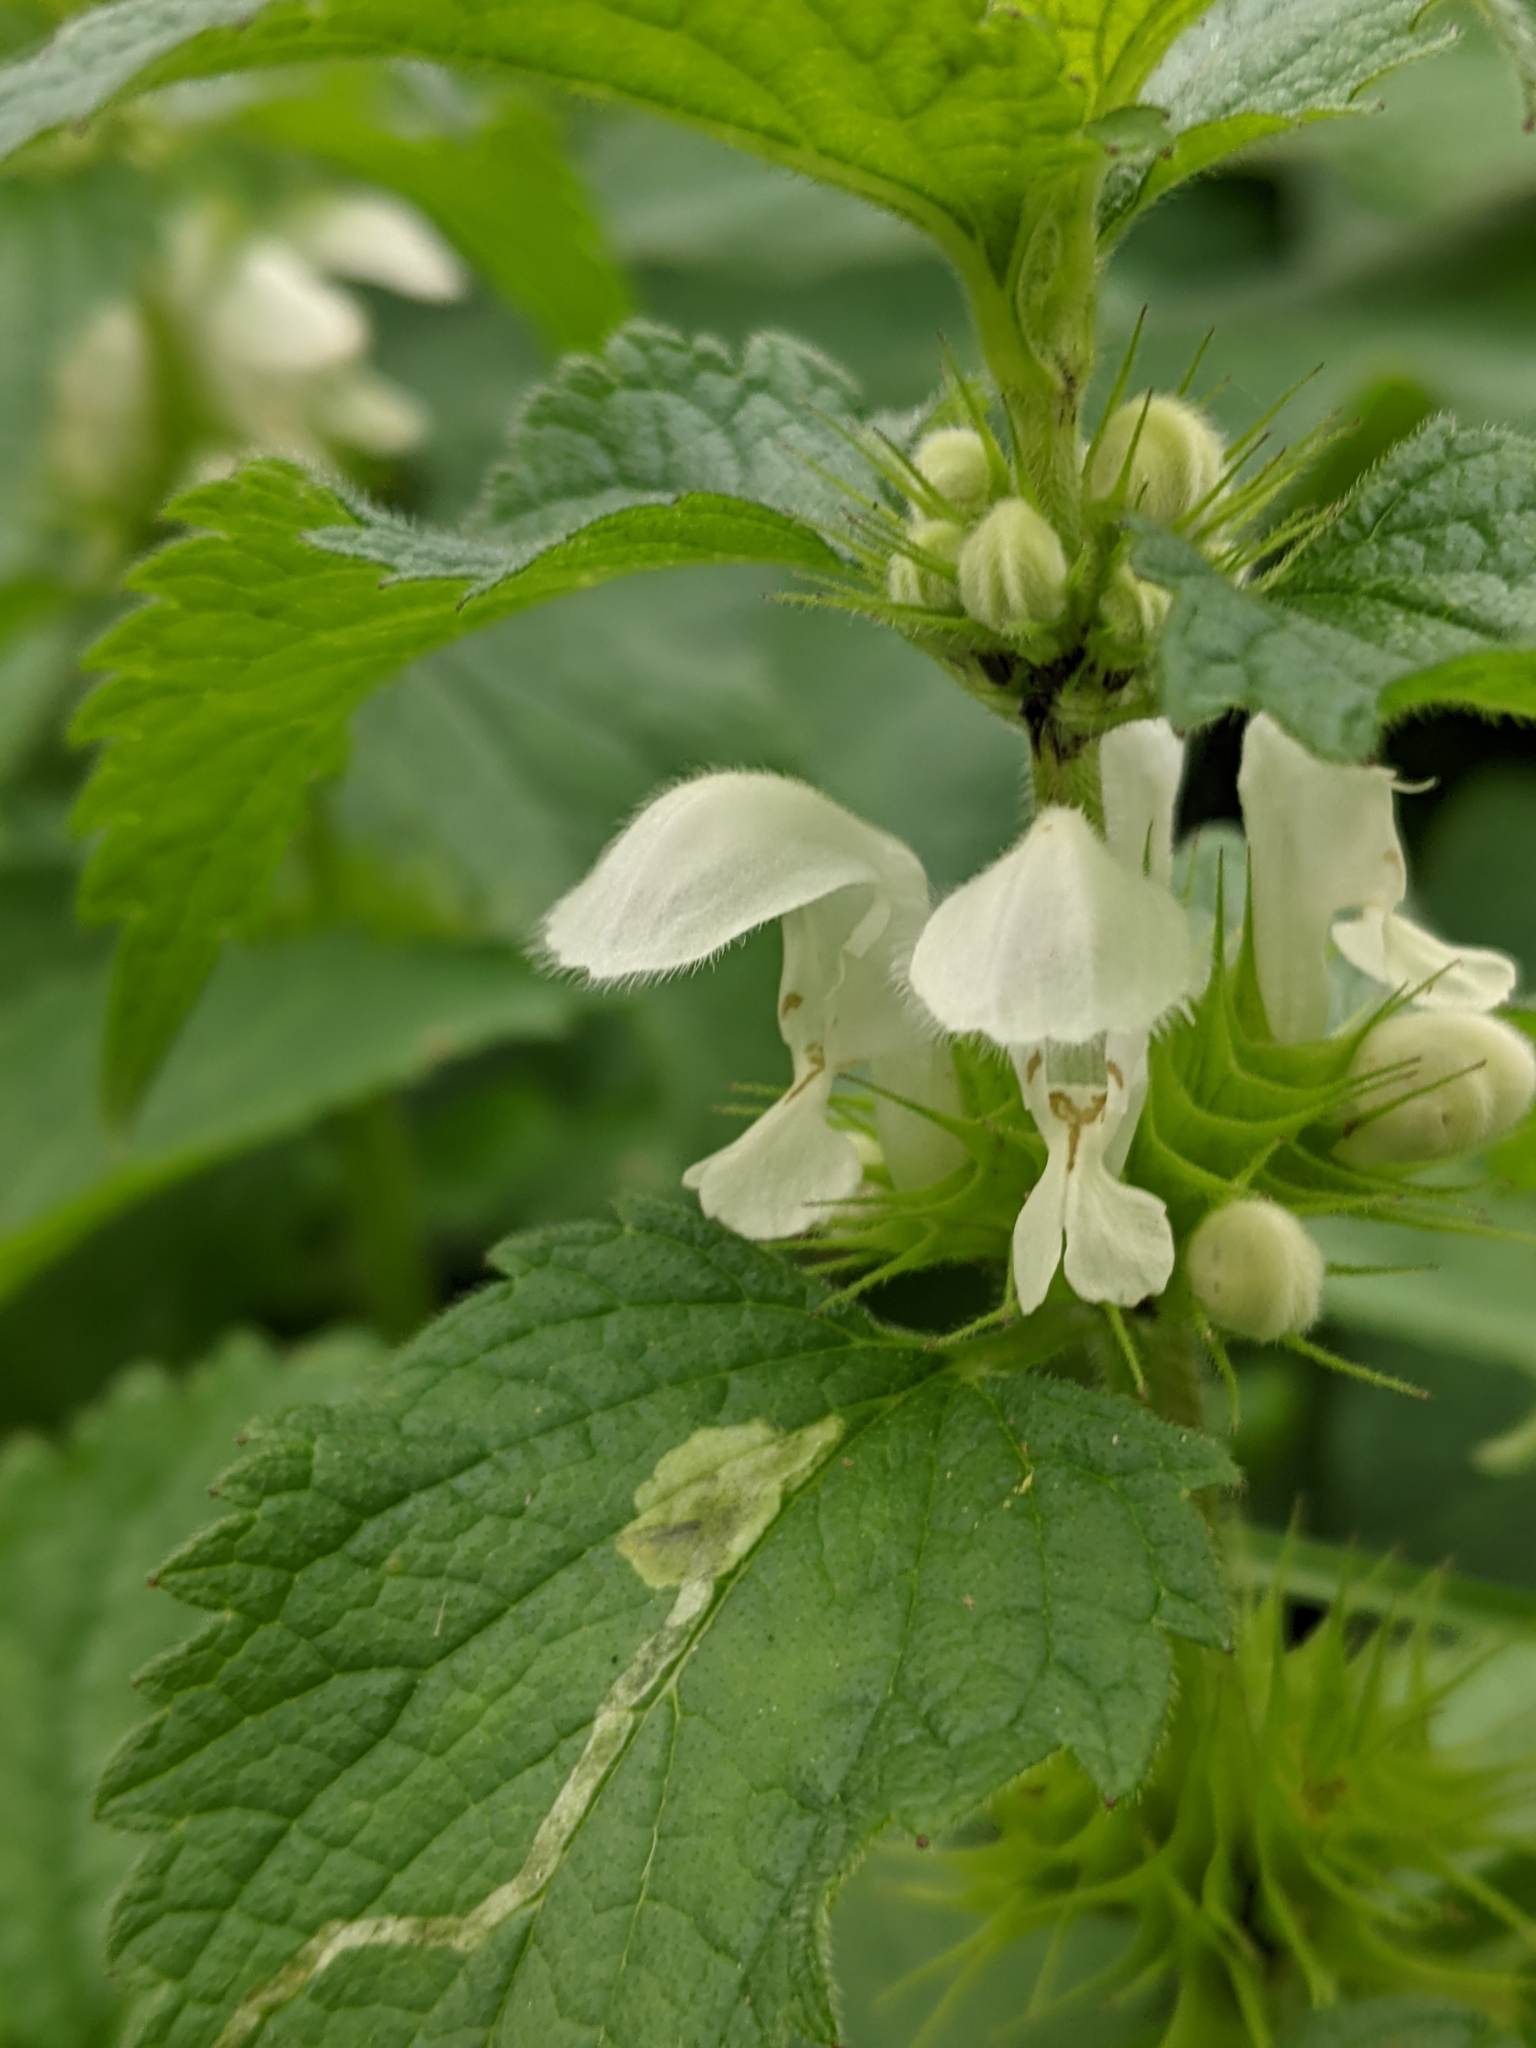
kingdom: Plantae
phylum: Tracheophyta
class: Magnoliopsida
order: Lamiales
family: Lamiaceae
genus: Lamium
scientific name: Lamium album
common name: White dead-nettle
